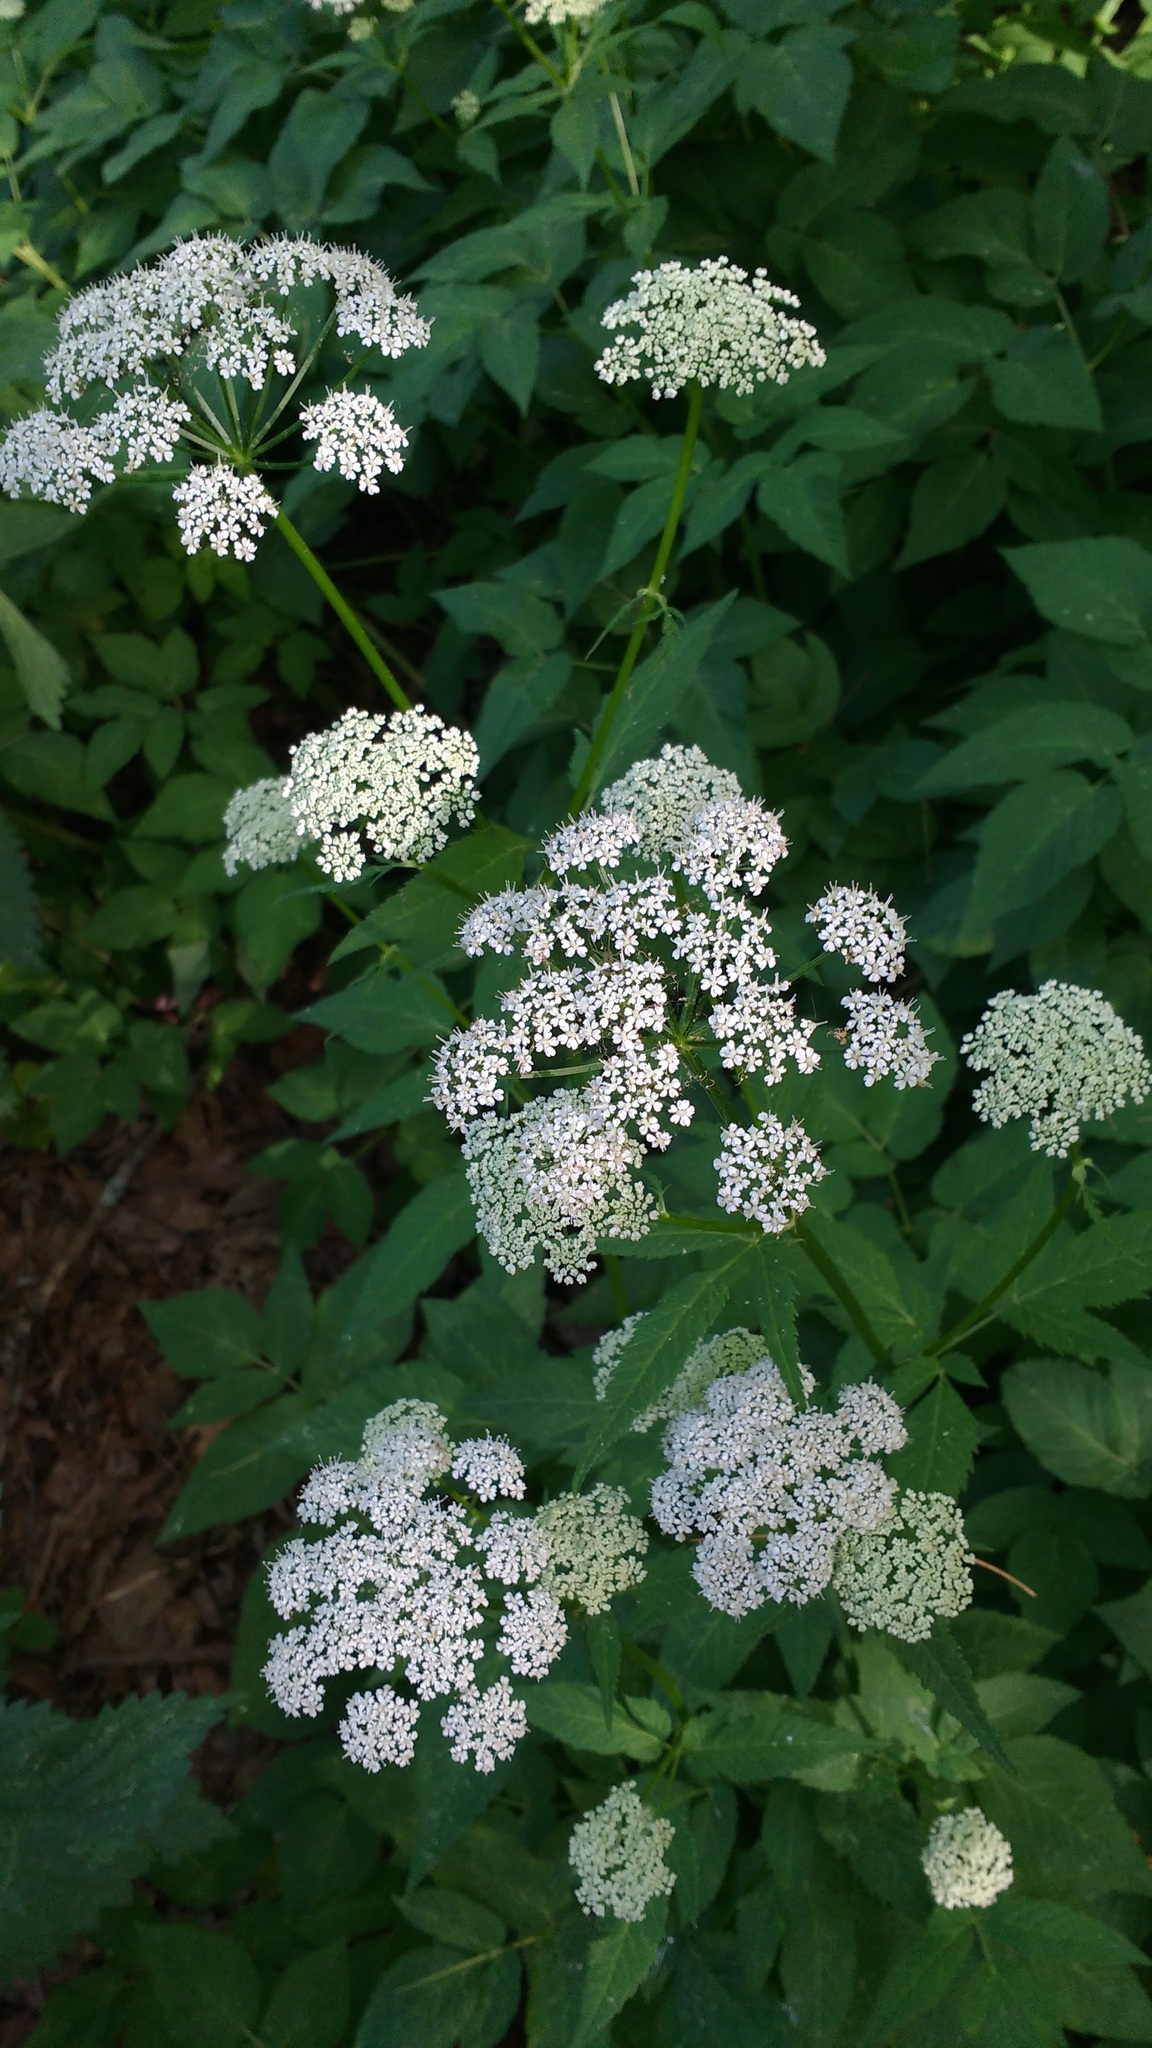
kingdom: Plantae
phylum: Tracheophyta
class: Magnoliopsida
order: Apiales
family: Apiaceae
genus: Aegopodium
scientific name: Aegopodium podagraria
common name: Ground-elder
